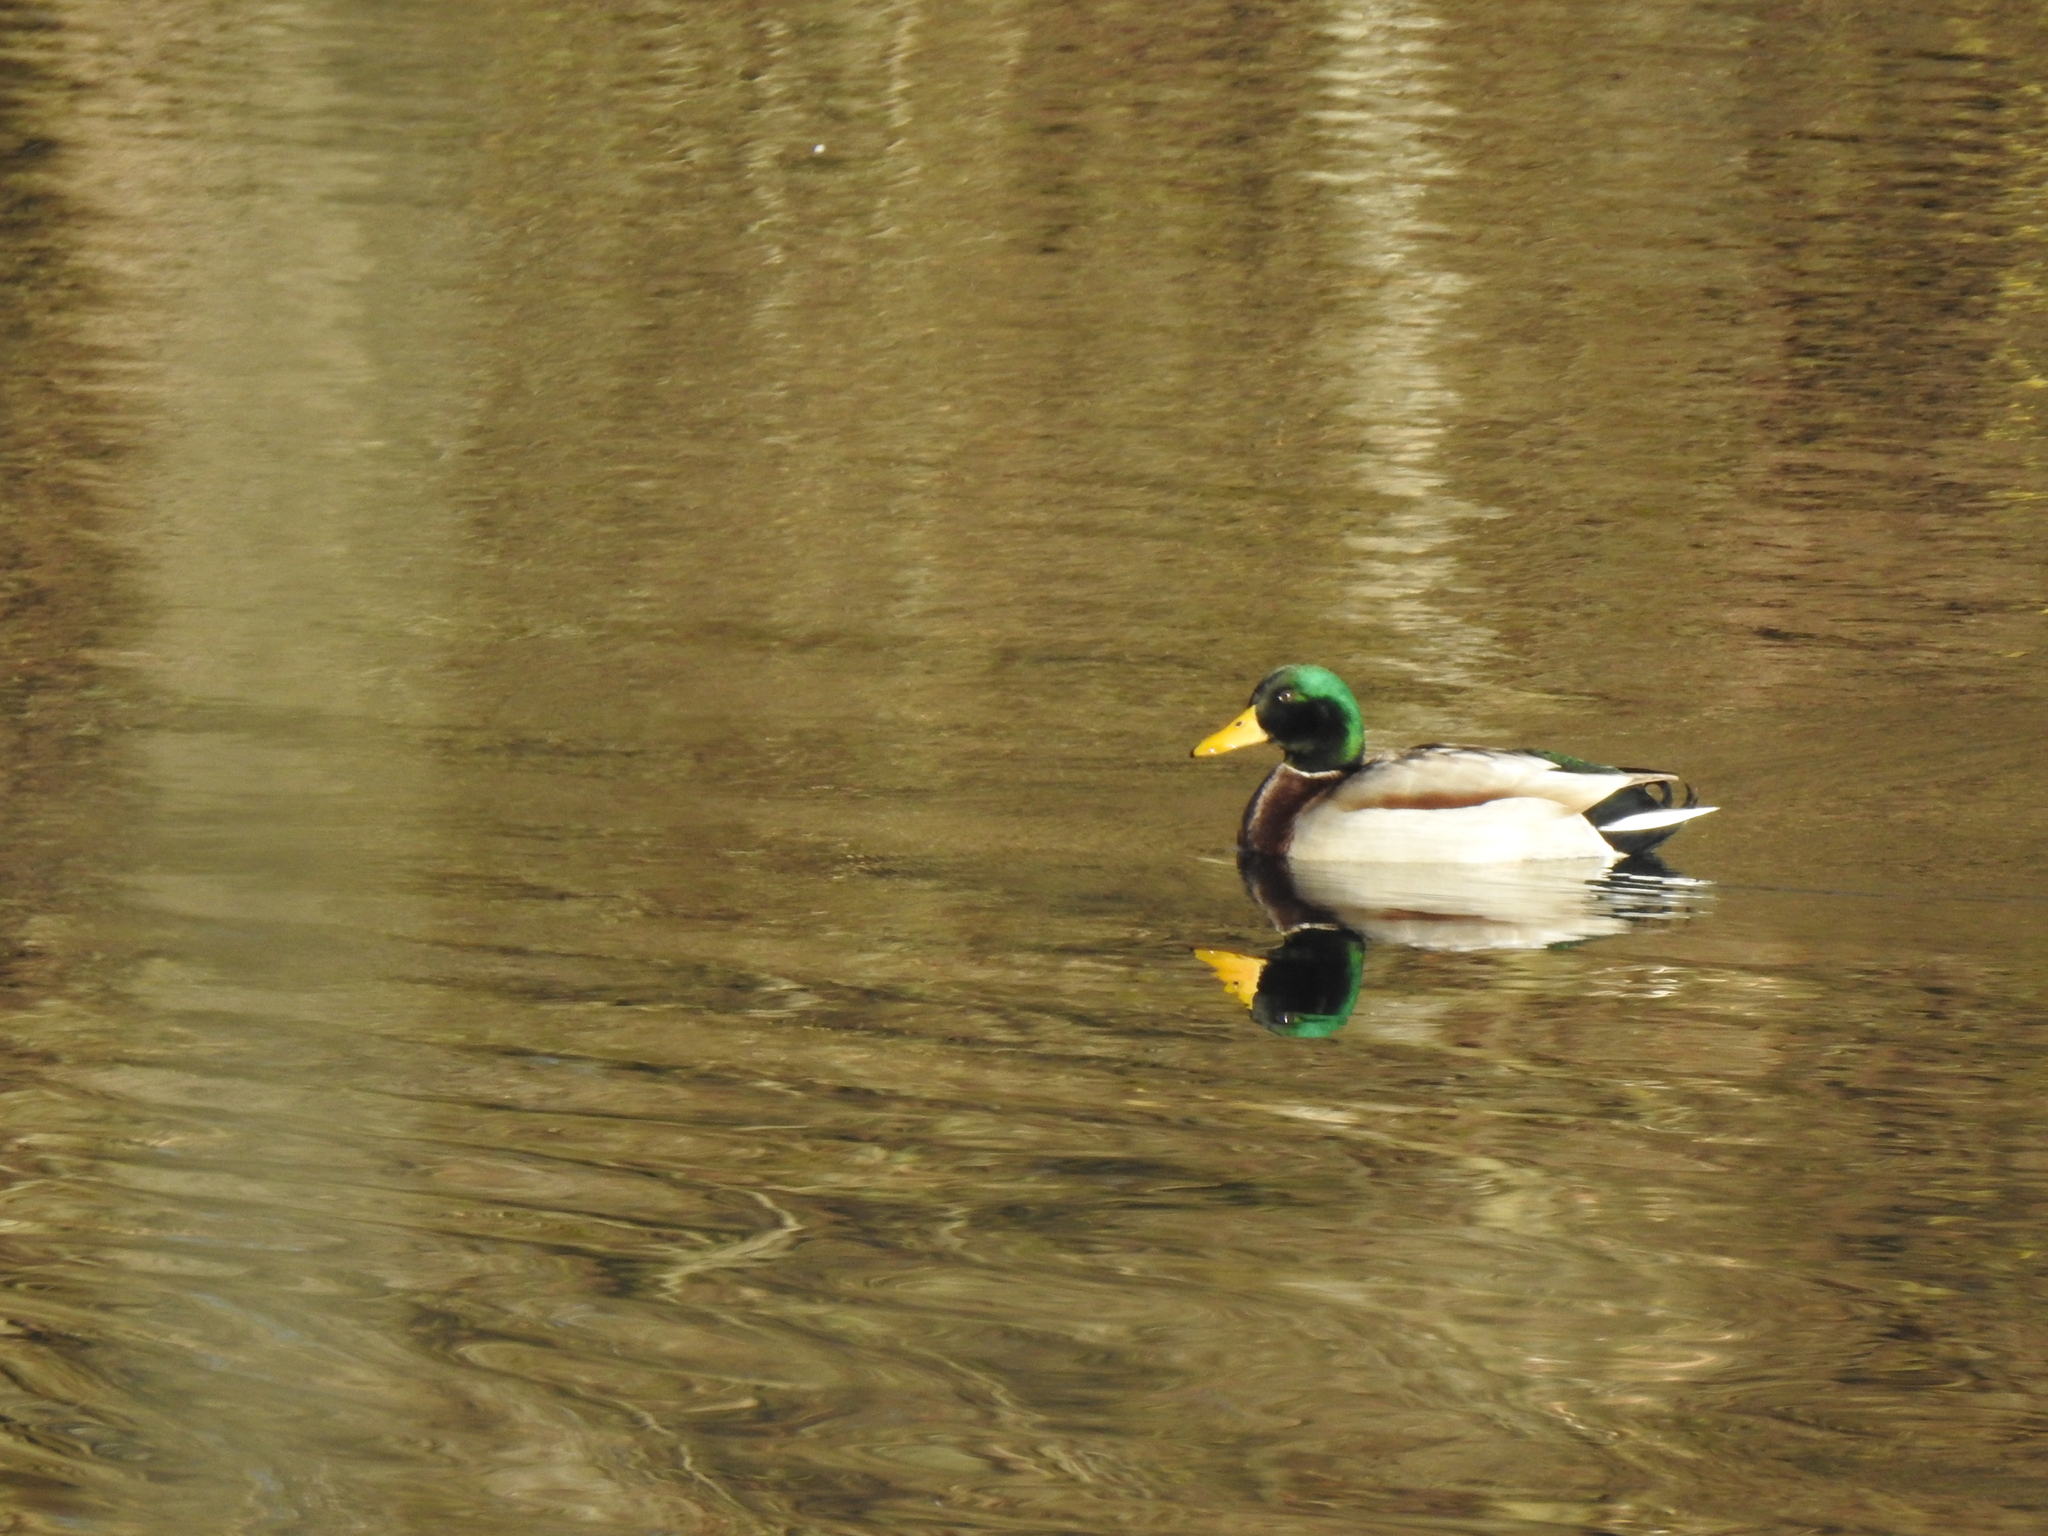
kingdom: Animalia
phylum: Chordata
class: Aves
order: Anseriformes
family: Anatidae
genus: Anas
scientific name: Anas platyrhynchos
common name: Mallard
